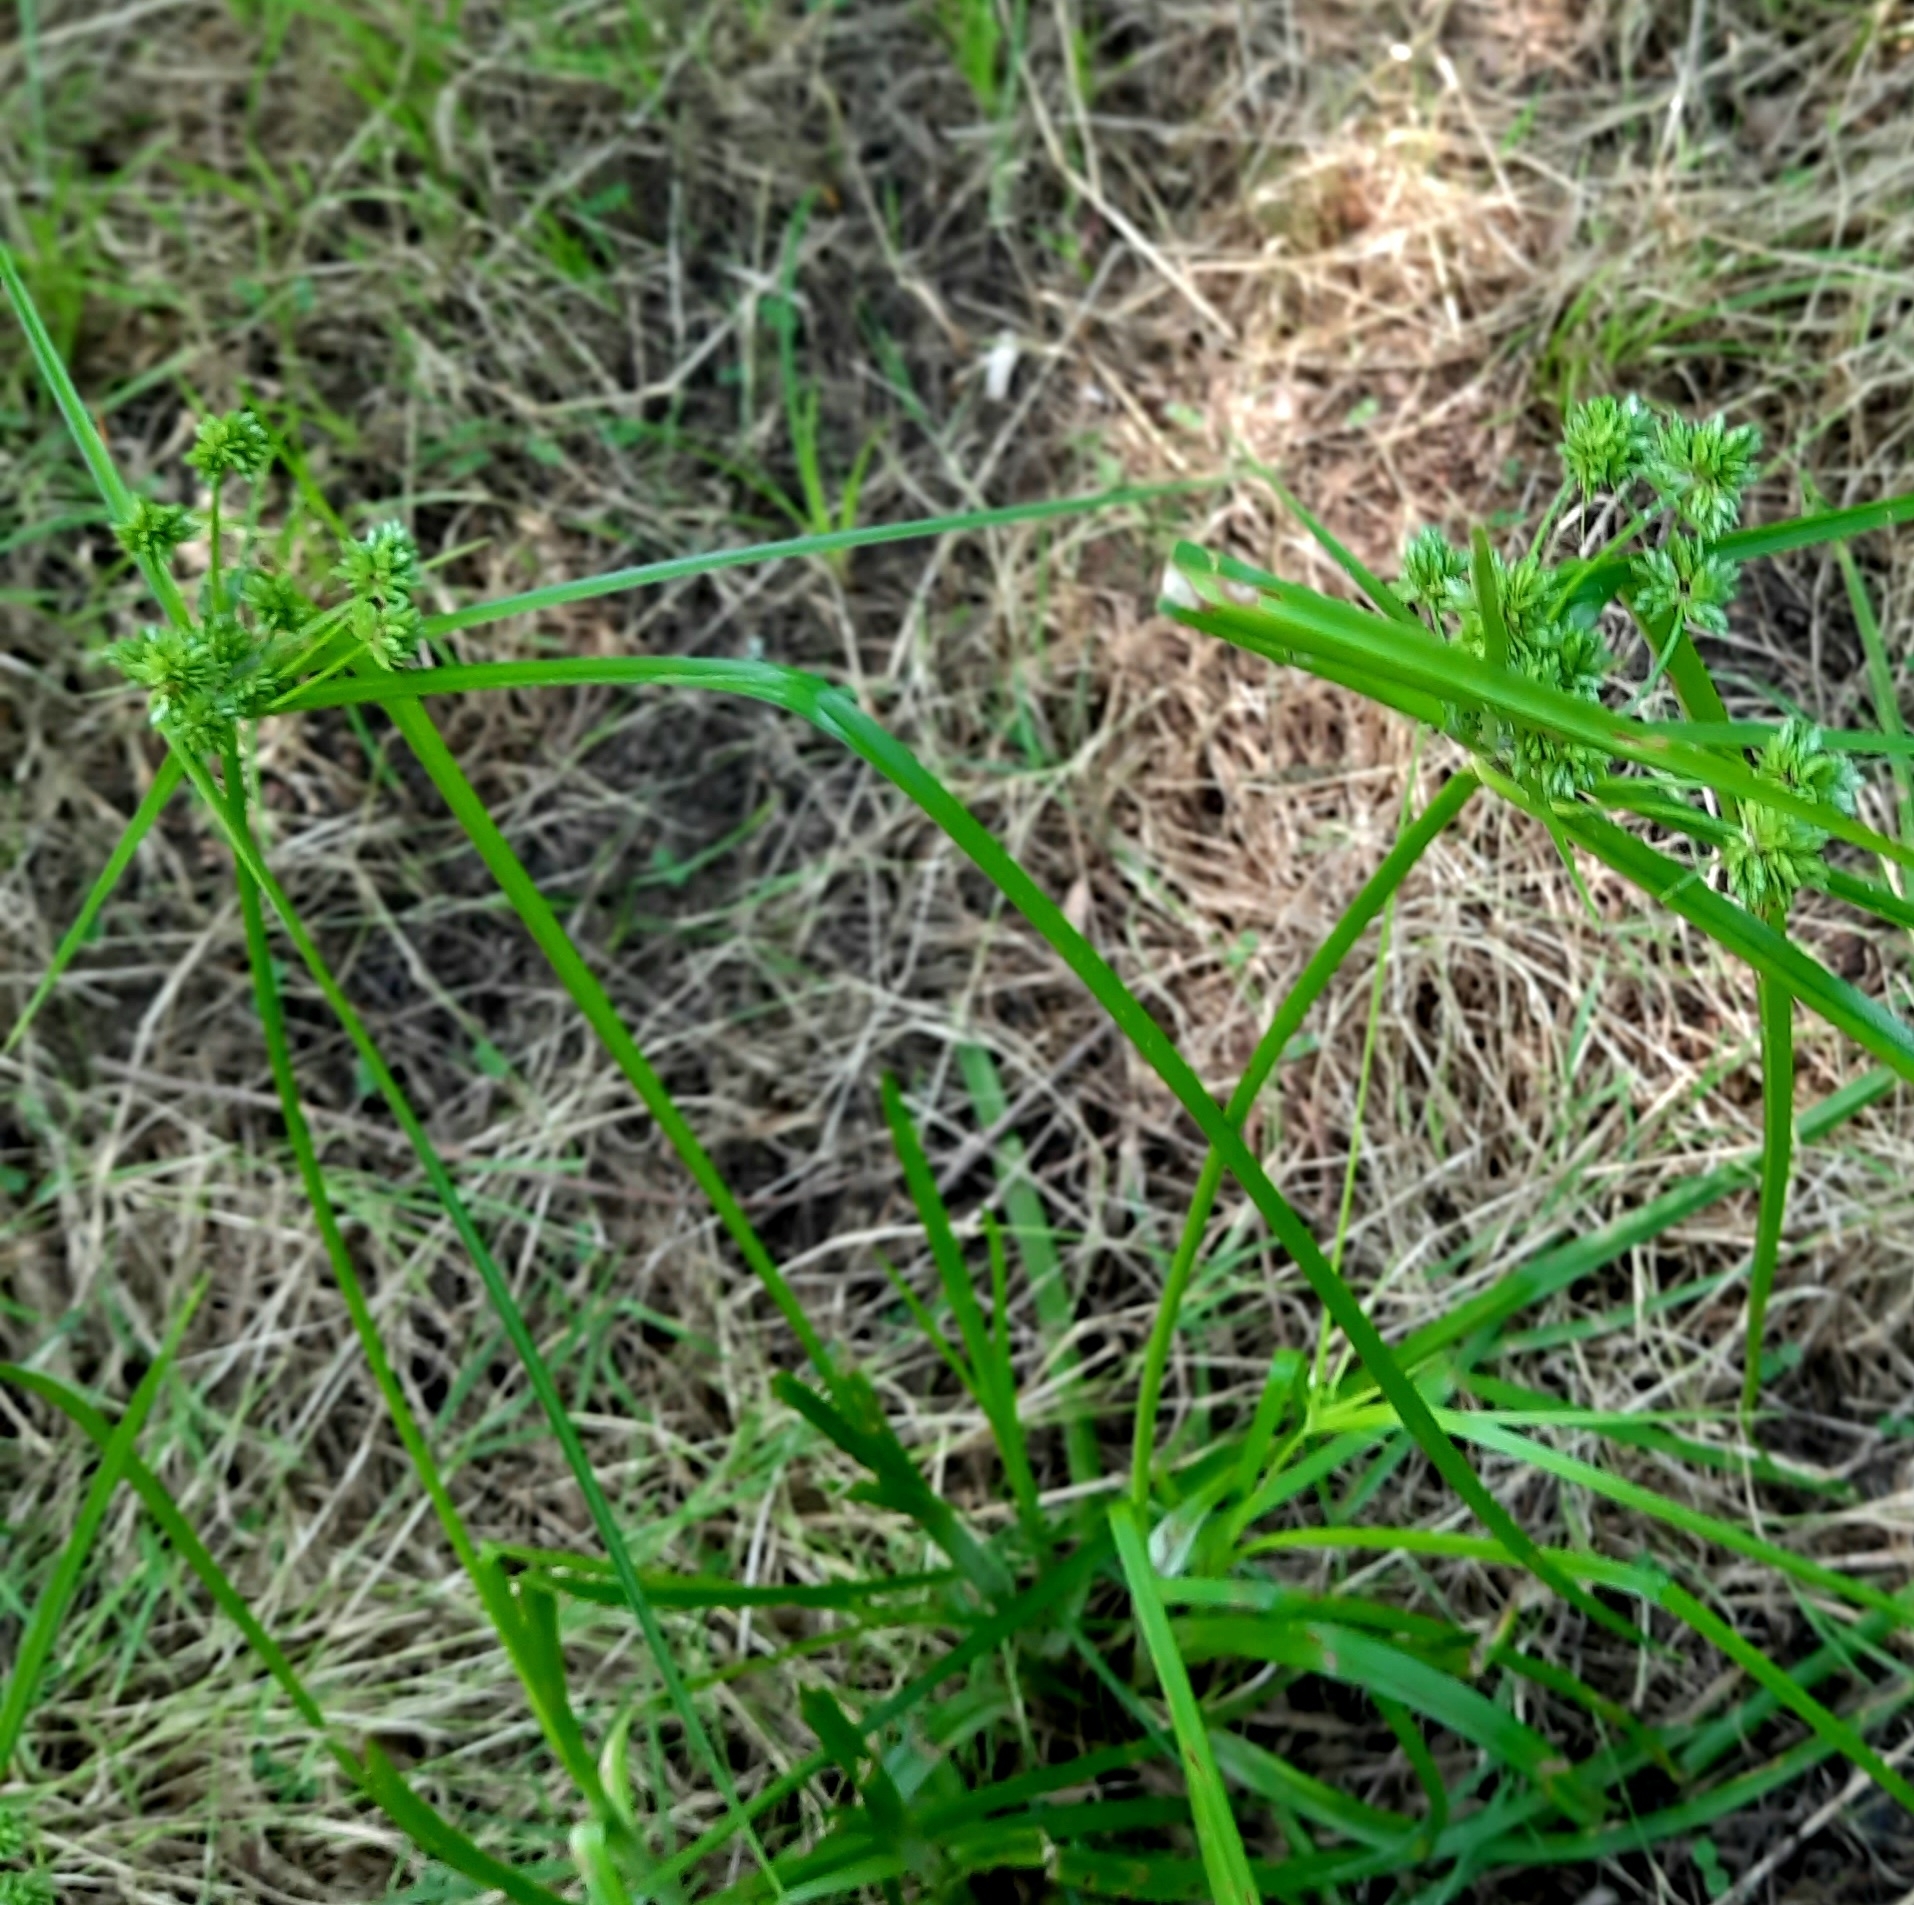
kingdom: Plantae
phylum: Tracheophyta
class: Liliopsida
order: Poales
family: Cyperaceae
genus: Cyperus
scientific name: Cyperus eragrostis
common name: Tall flatsedge
